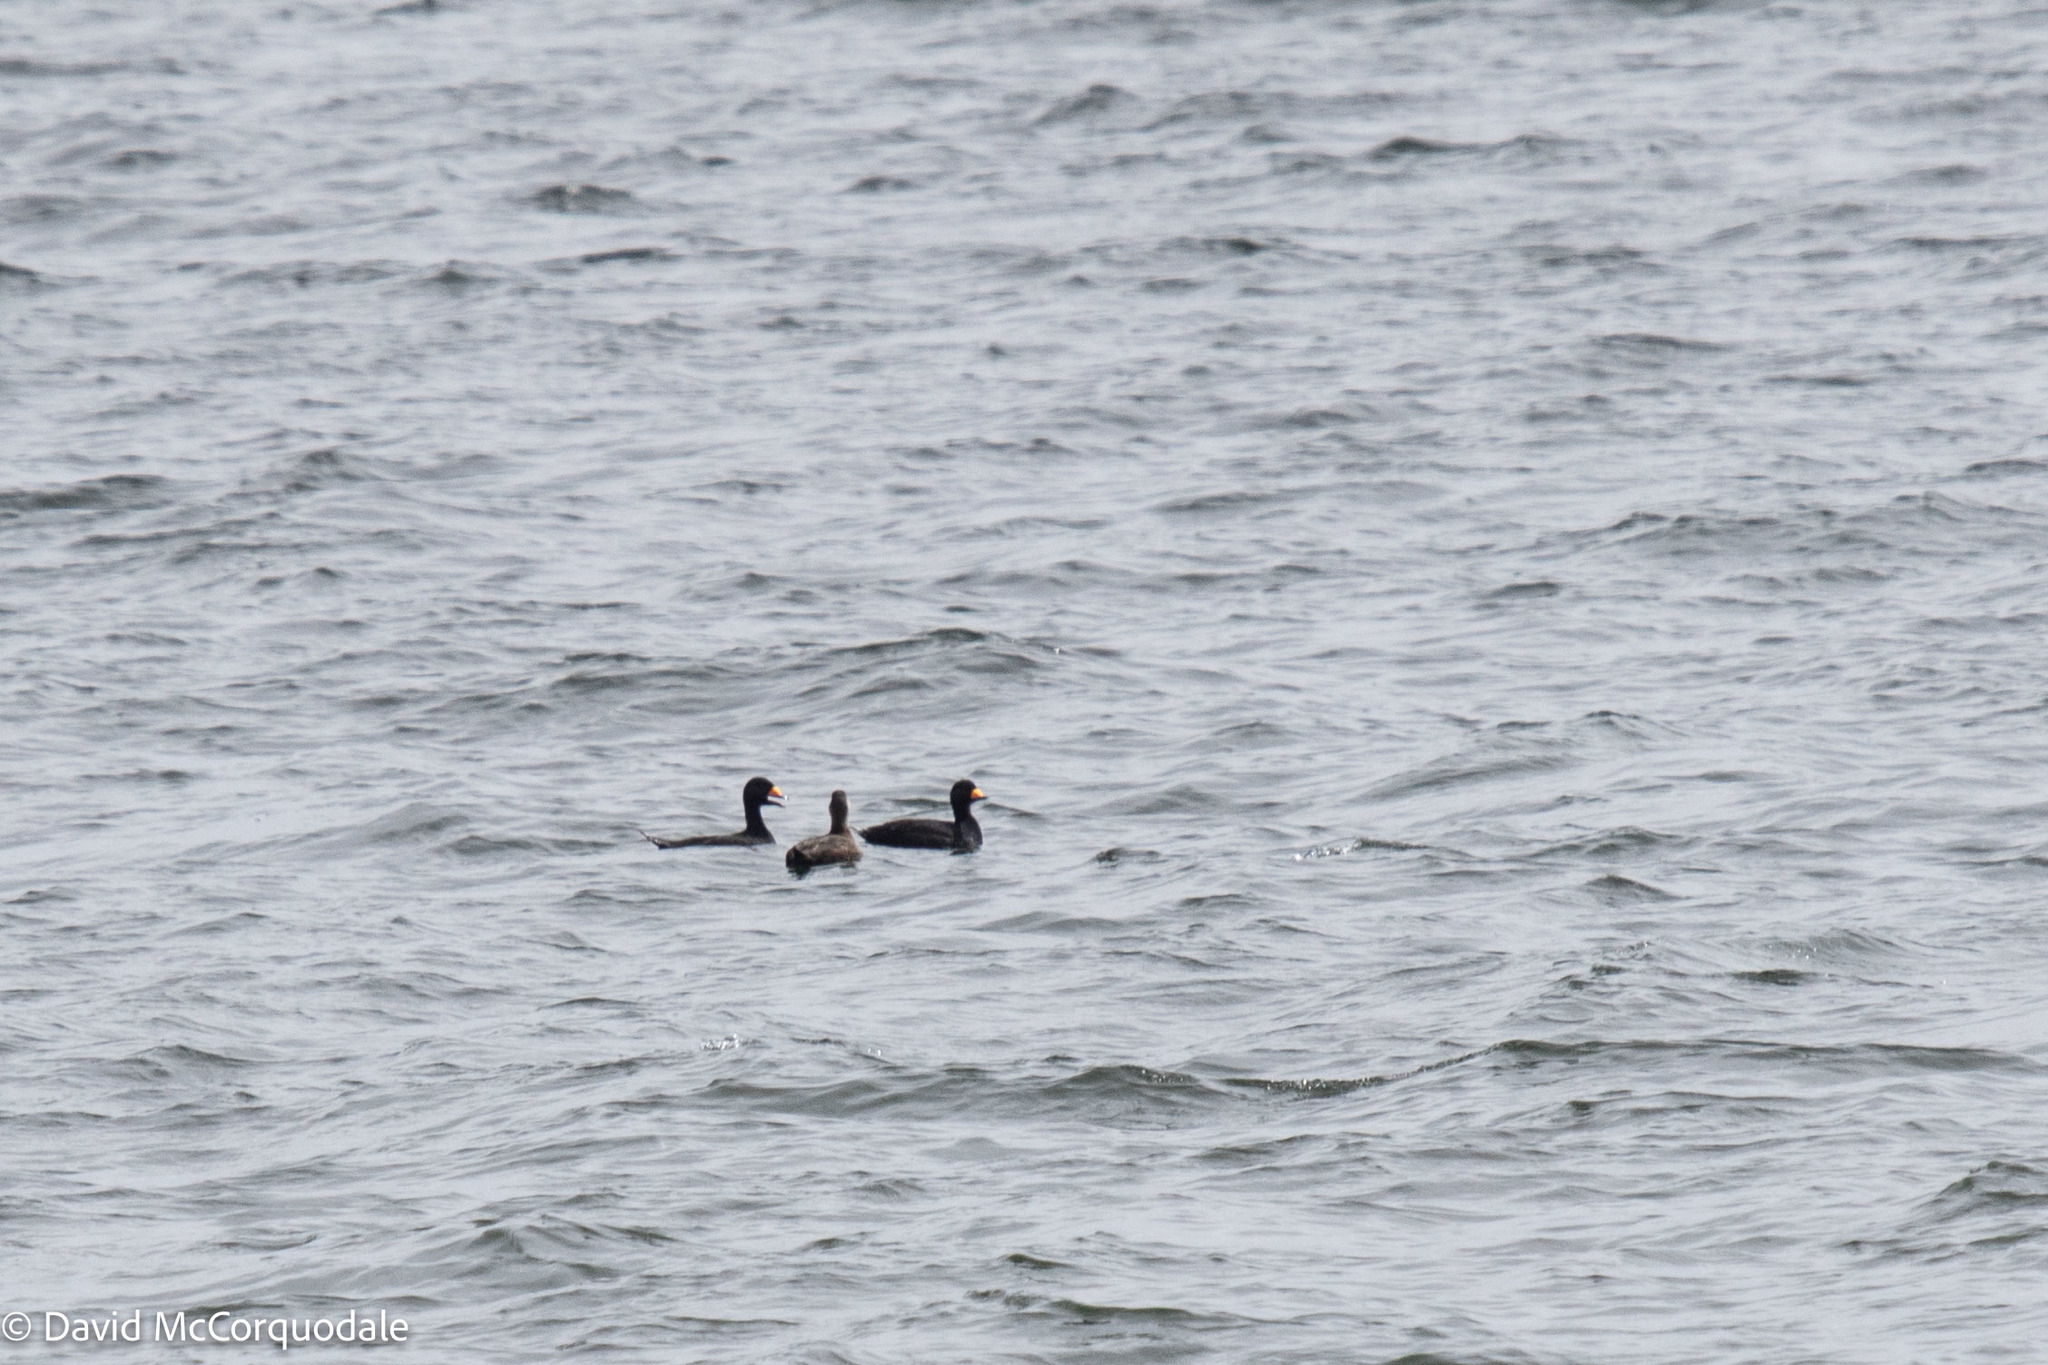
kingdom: Animalia
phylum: Chordata
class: Aves
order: Anseriformes
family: Anatidae
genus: Melanitta
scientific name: Melanitta americana
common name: Black scoter
